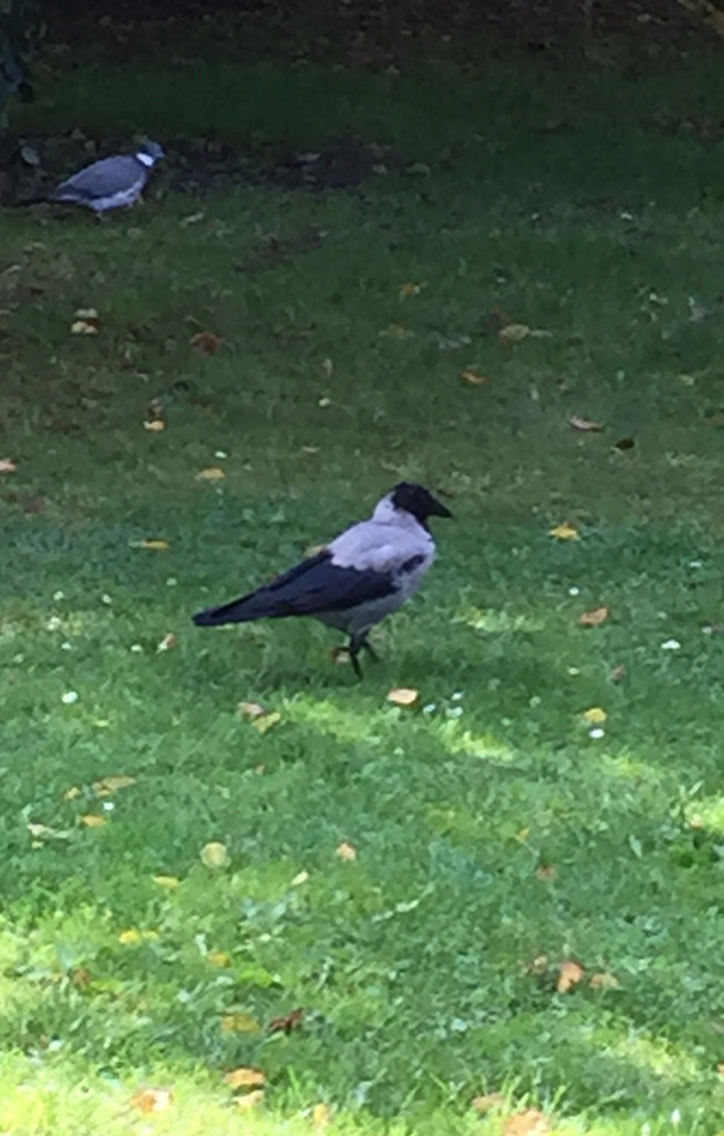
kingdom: Animalia
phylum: Chordata
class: Aves
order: Passeriformes
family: Corvidae
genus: Corvus
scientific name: Corvus cornix
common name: Hooded crow
